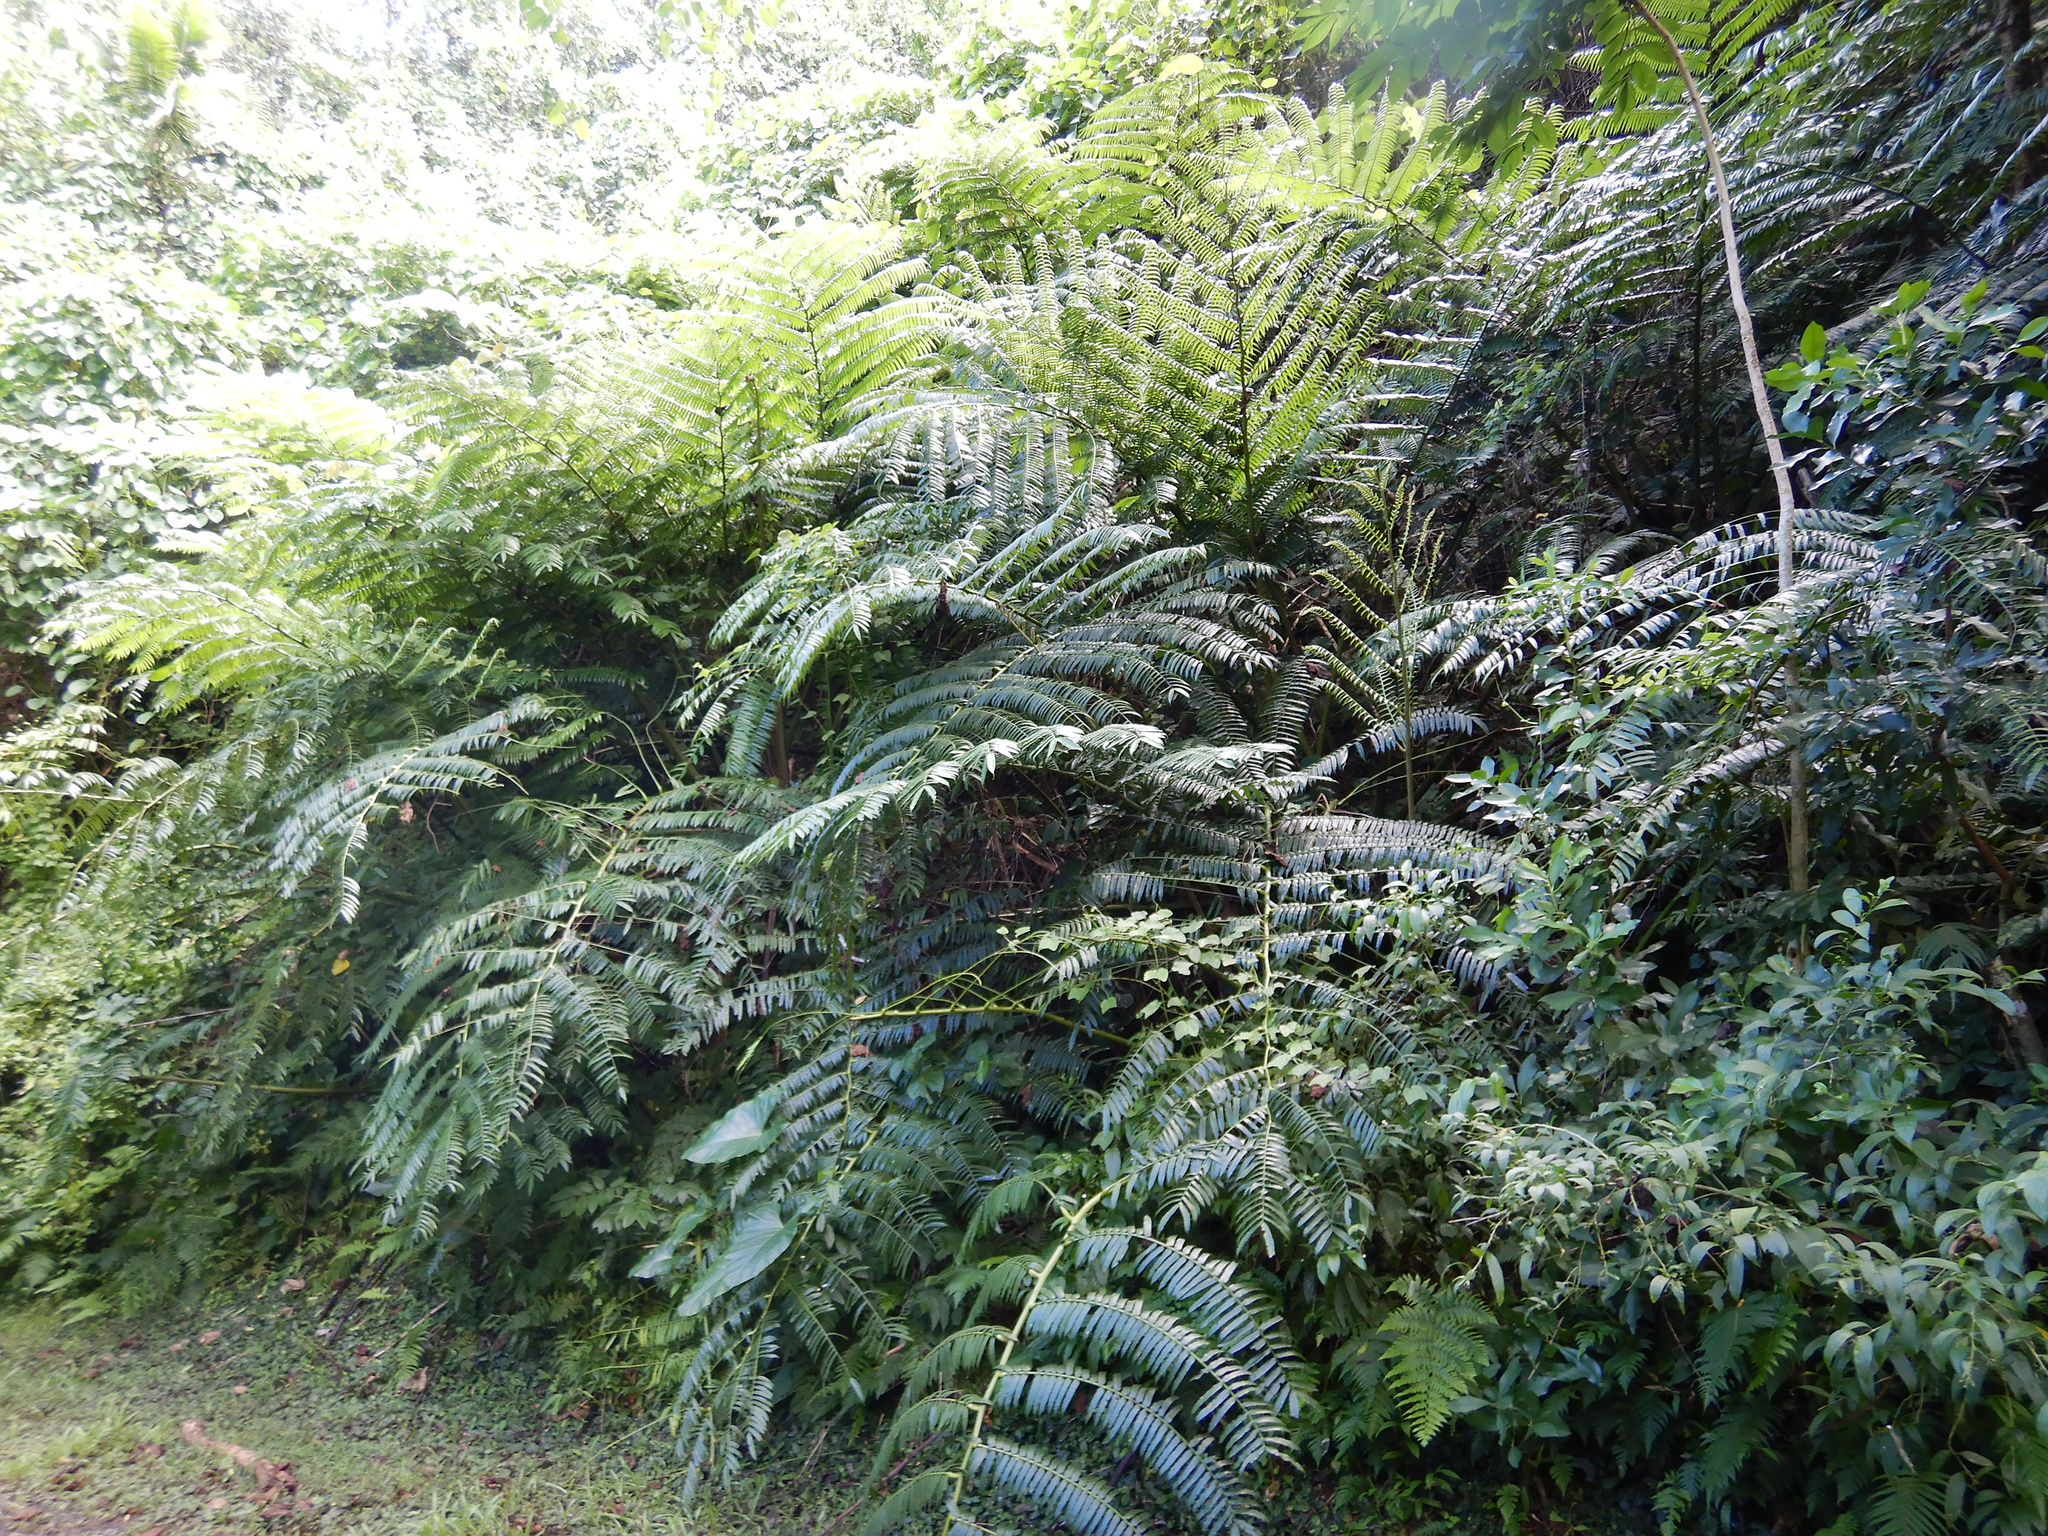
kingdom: Plantae
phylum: Tracheophyta
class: Polypodiopsida
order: Marattiales
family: Marattiaceae
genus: Angiopteris
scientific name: Angiopteris evecta
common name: Mule's-foot fern
